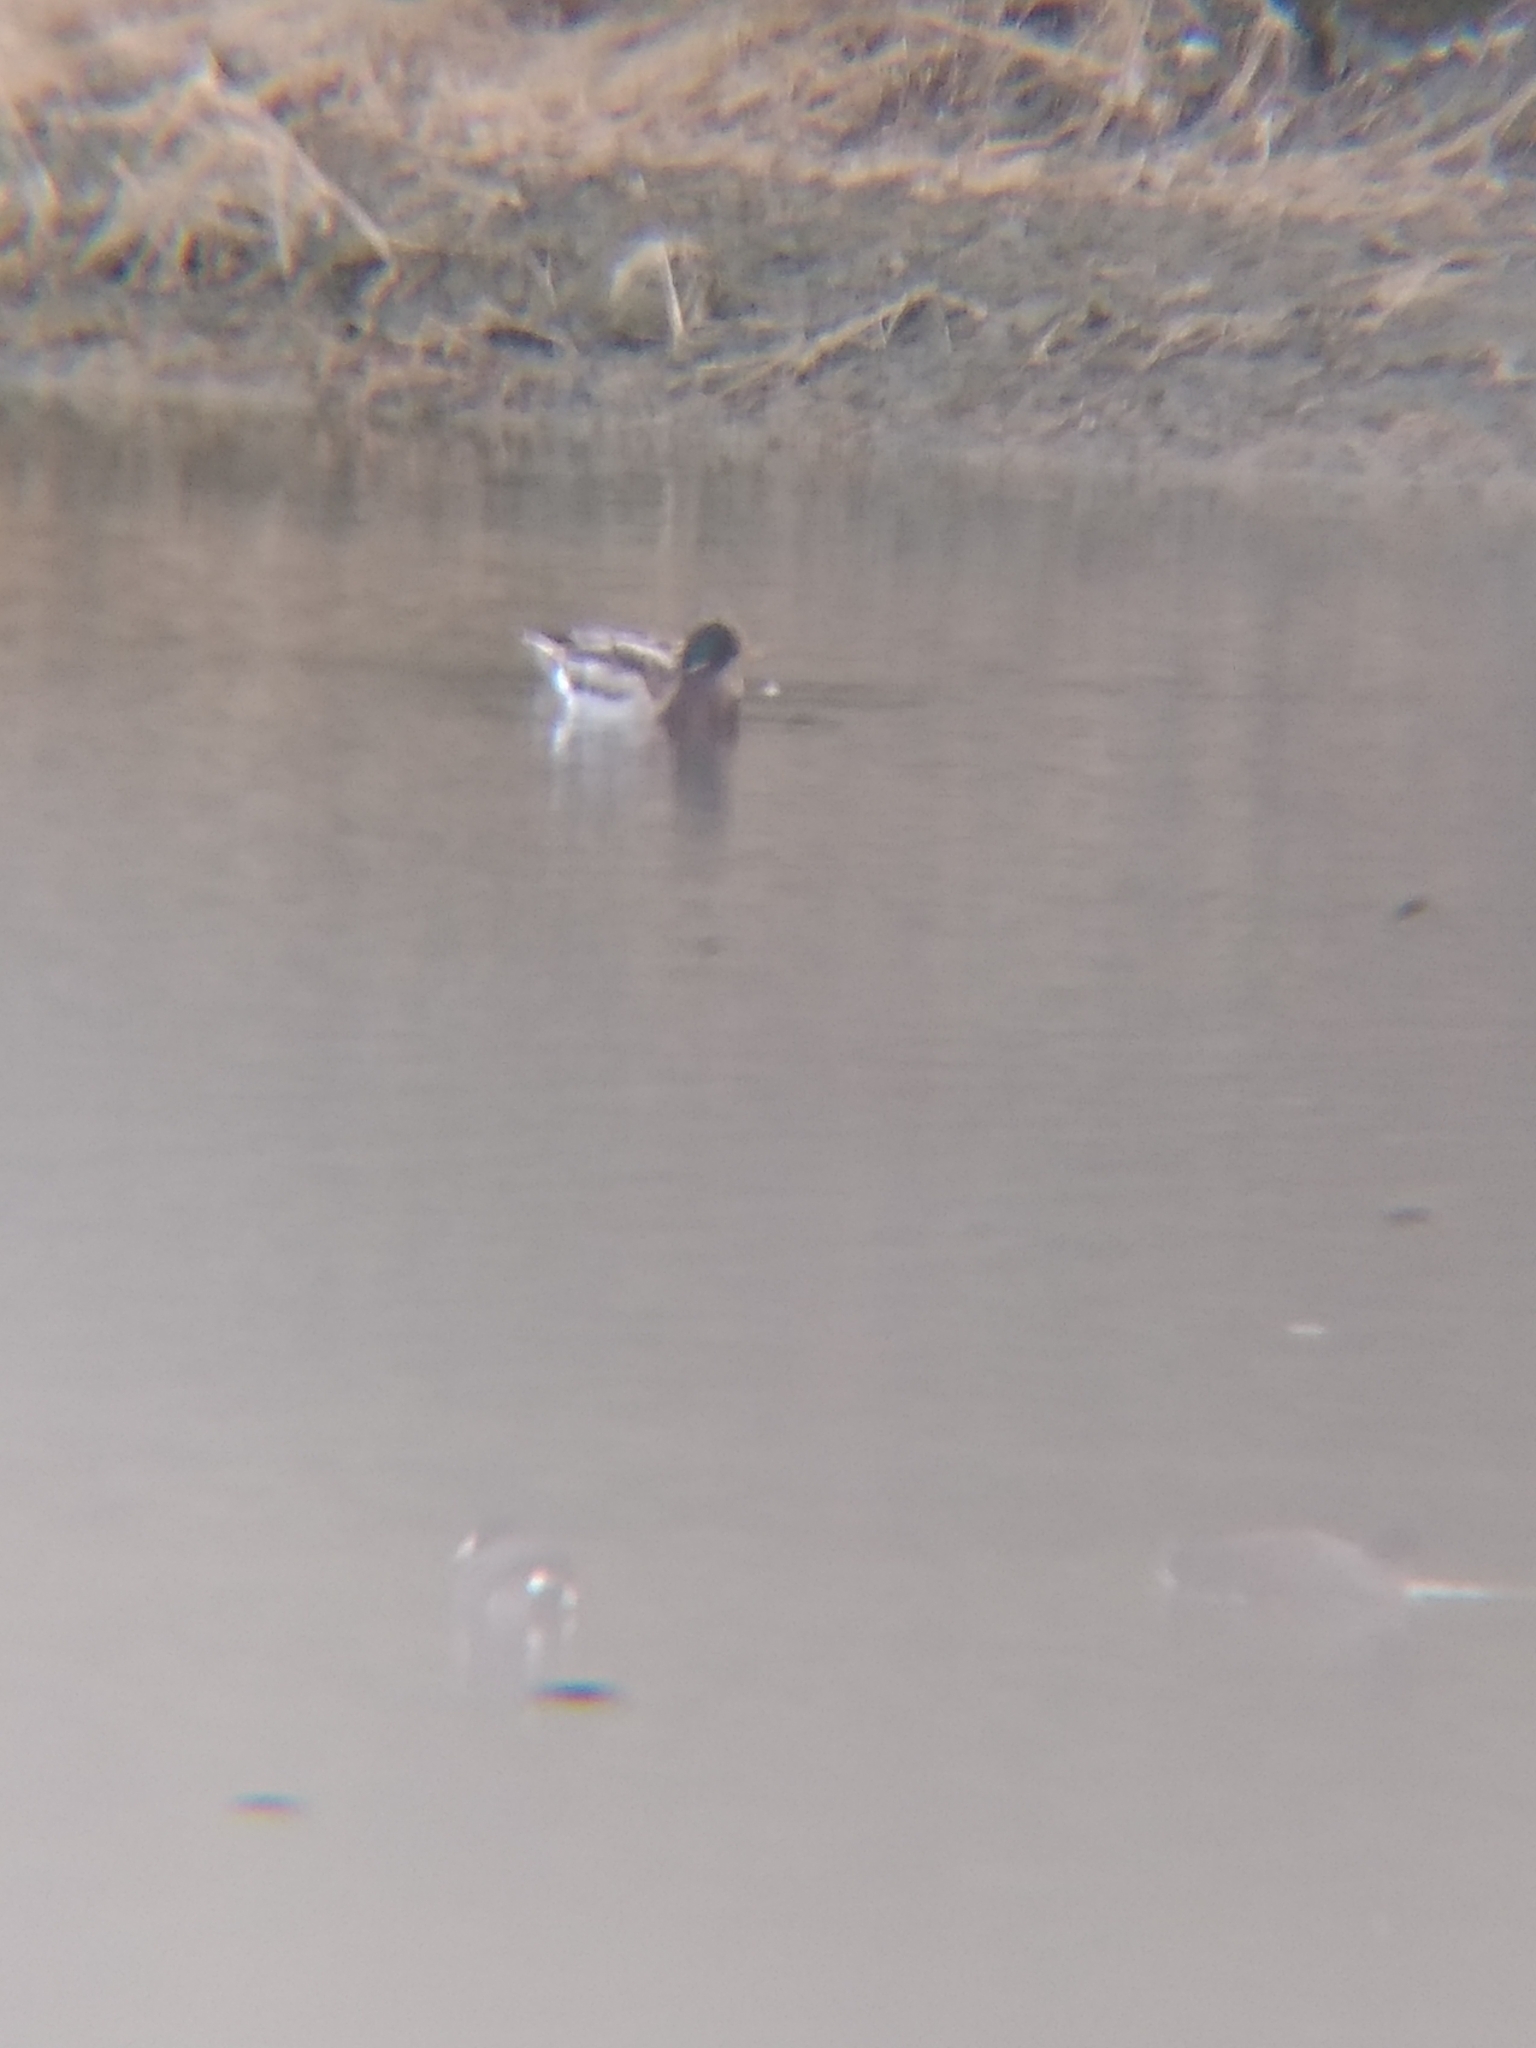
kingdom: Animalia
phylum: Chordata
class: Aves
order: Anseriformes
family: Anatidae
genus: Anas
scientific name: Anas platyrhynchos
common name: Mallard
